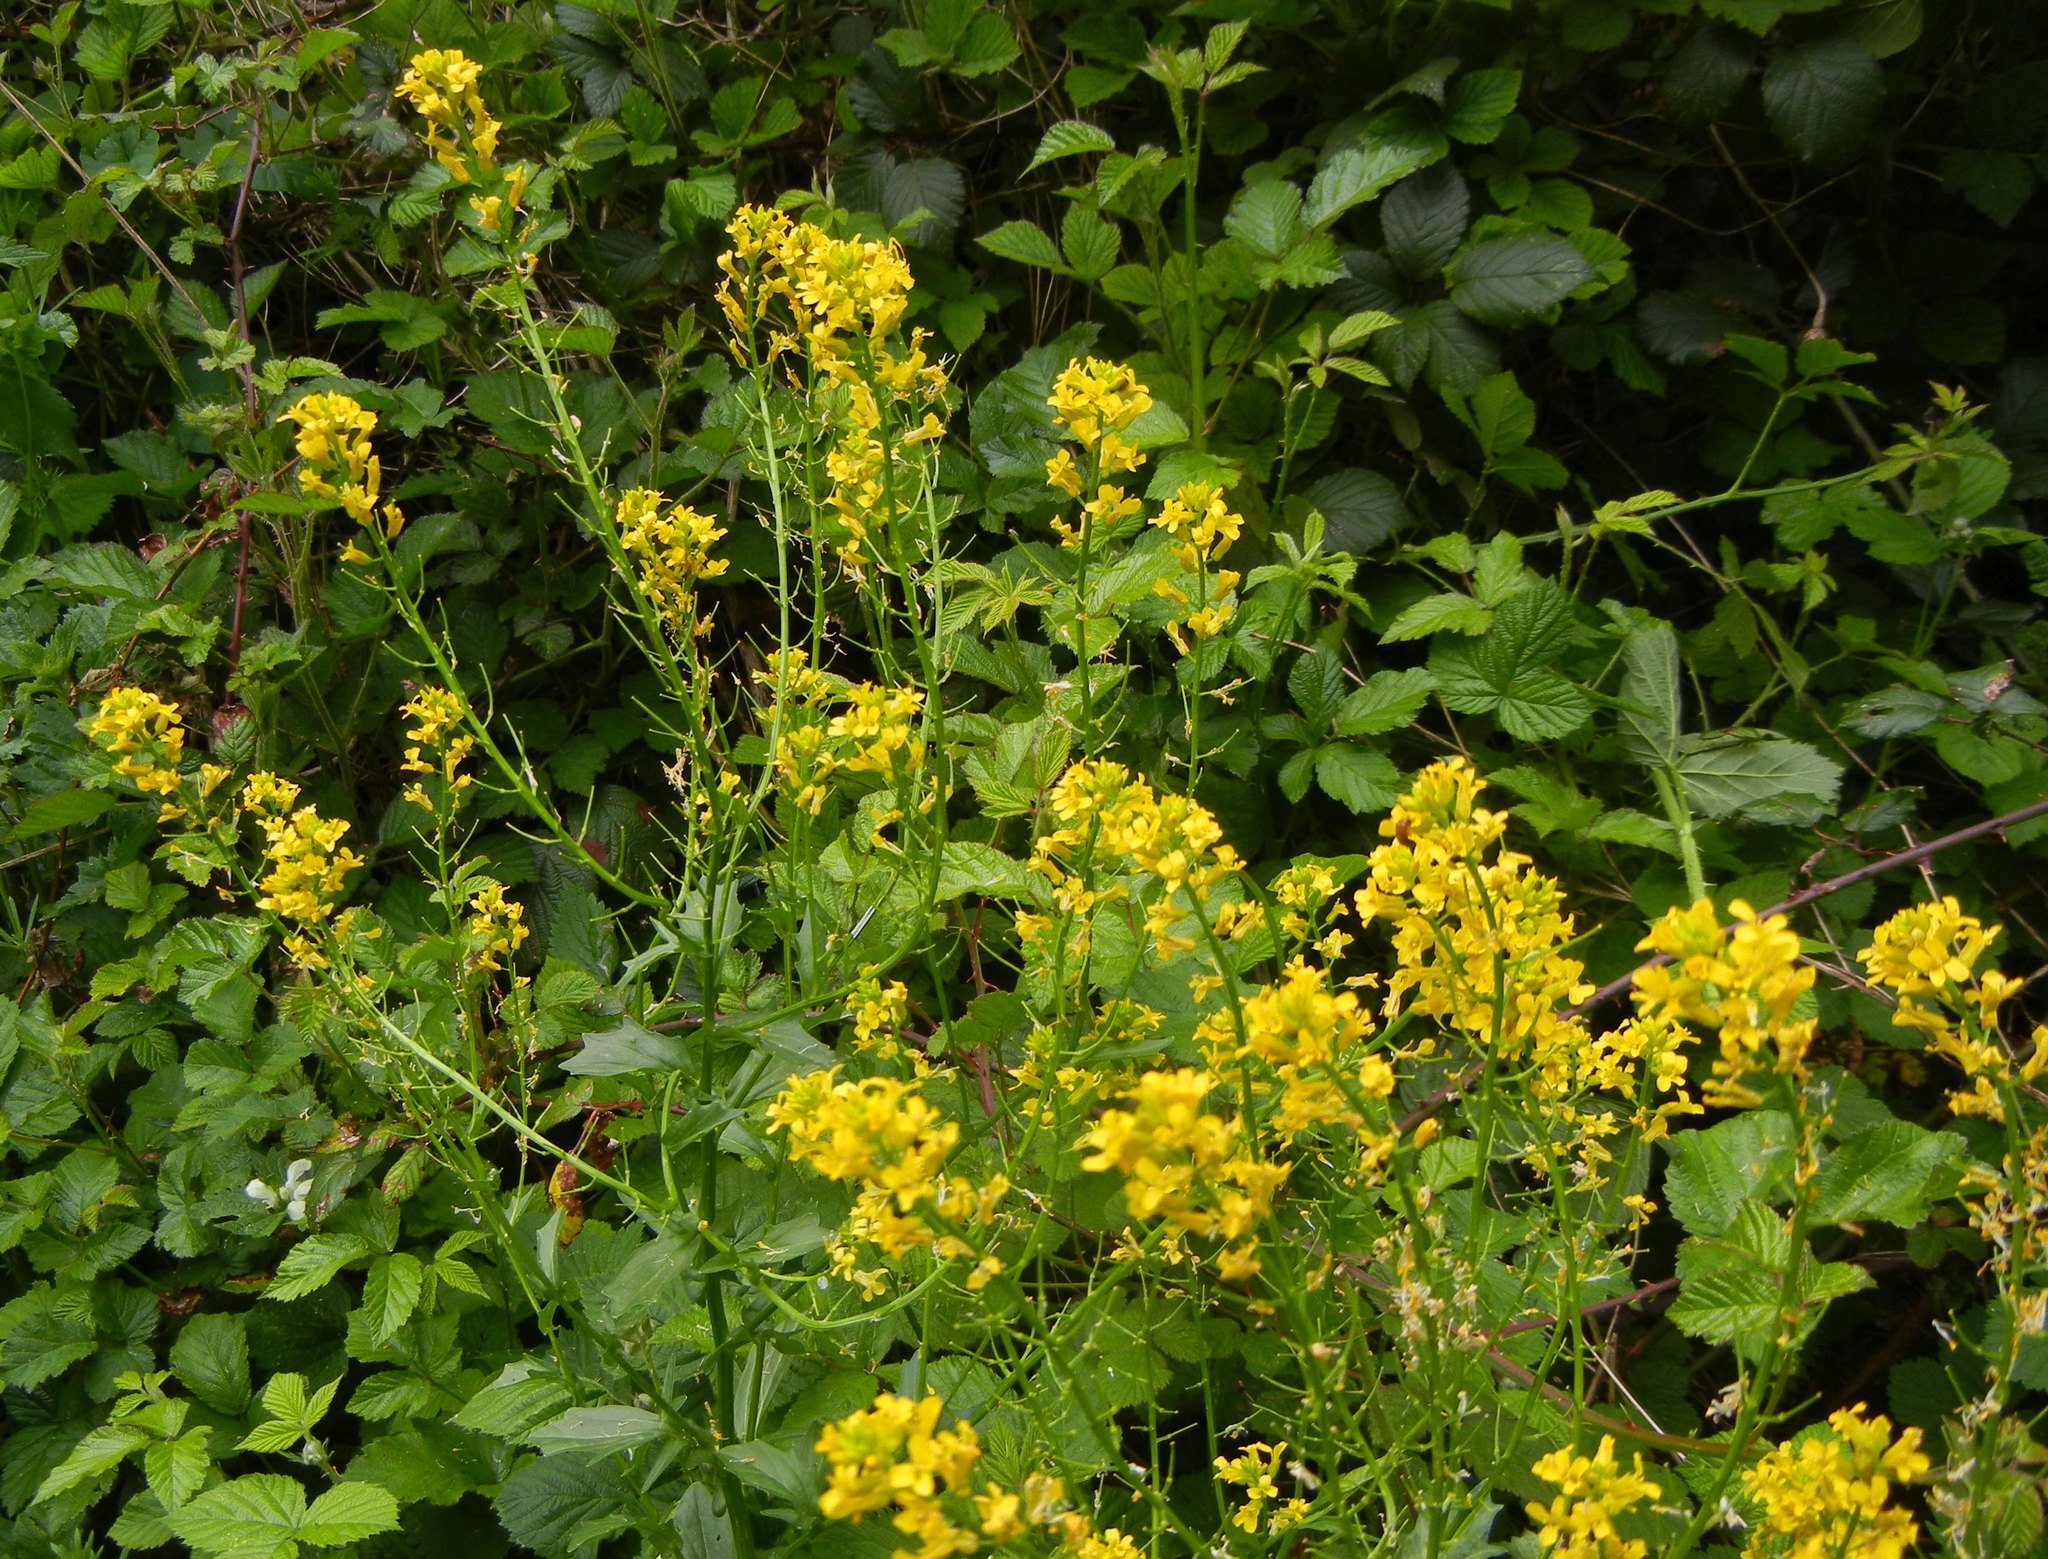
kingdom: Plantae
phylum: Tracheophyta
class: Magnoliopsida
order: Brassicales
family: Brassicaceae
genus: Barbarea
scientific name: Barbarea vulgaris
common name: Cressy-greens
